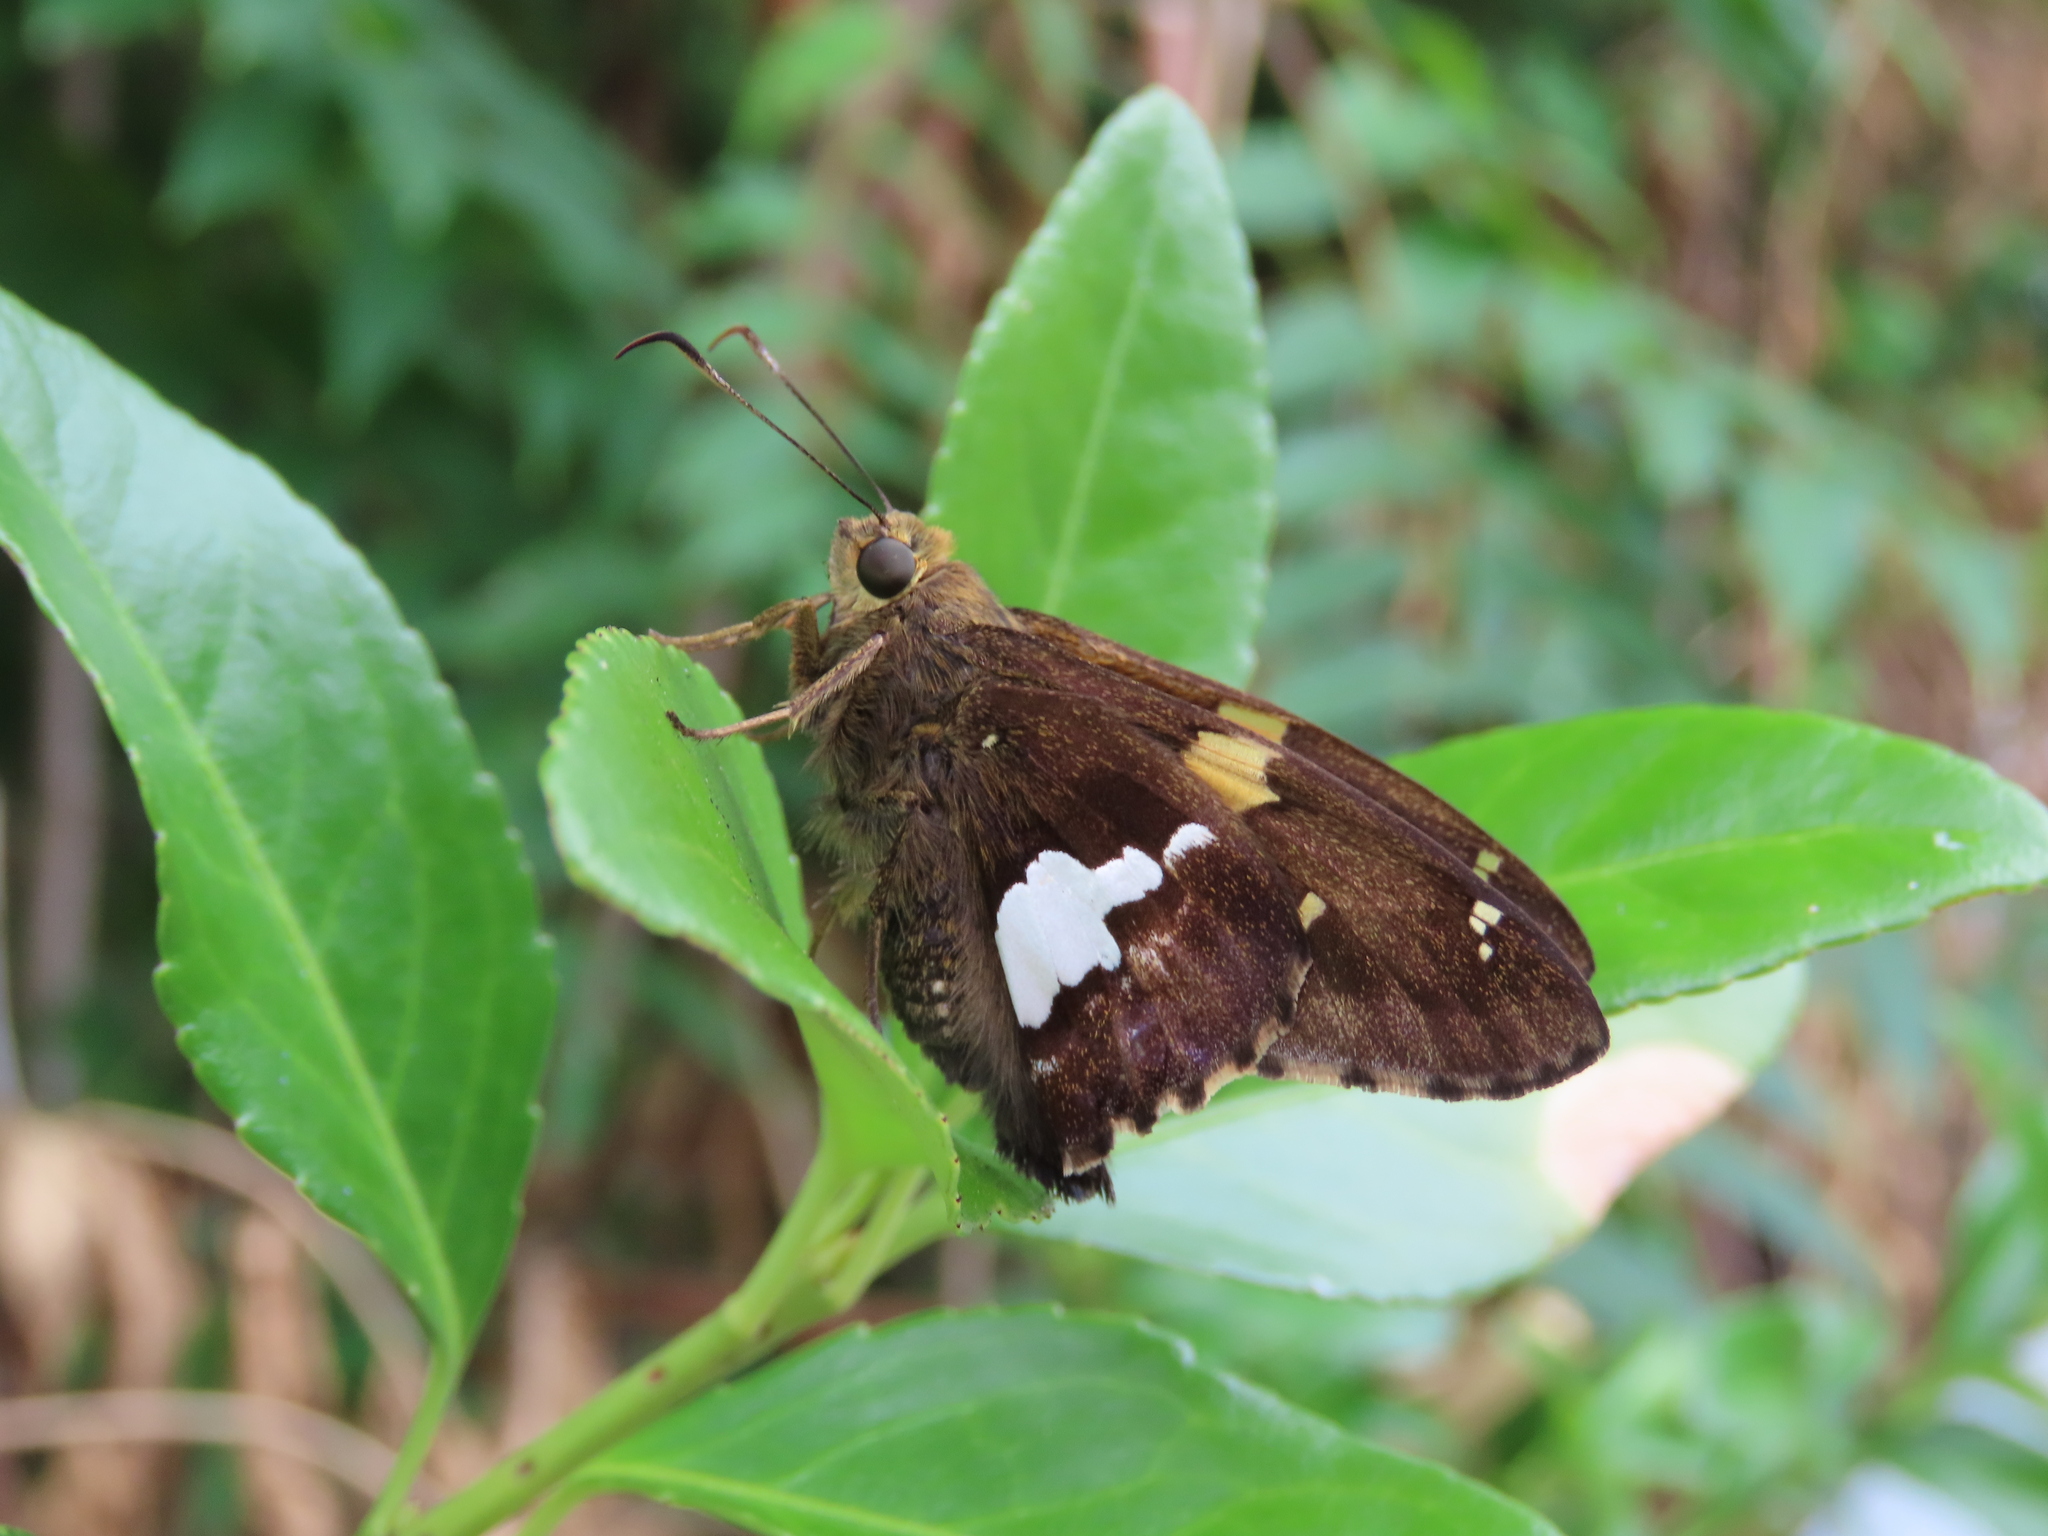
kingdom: Animalia
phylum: Arthropoda
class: Insecta
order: Lepidoptera
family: Hesperiidae
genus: Epargyreus
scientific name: Epargyreus clarus
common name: Silver-spotted skipper
